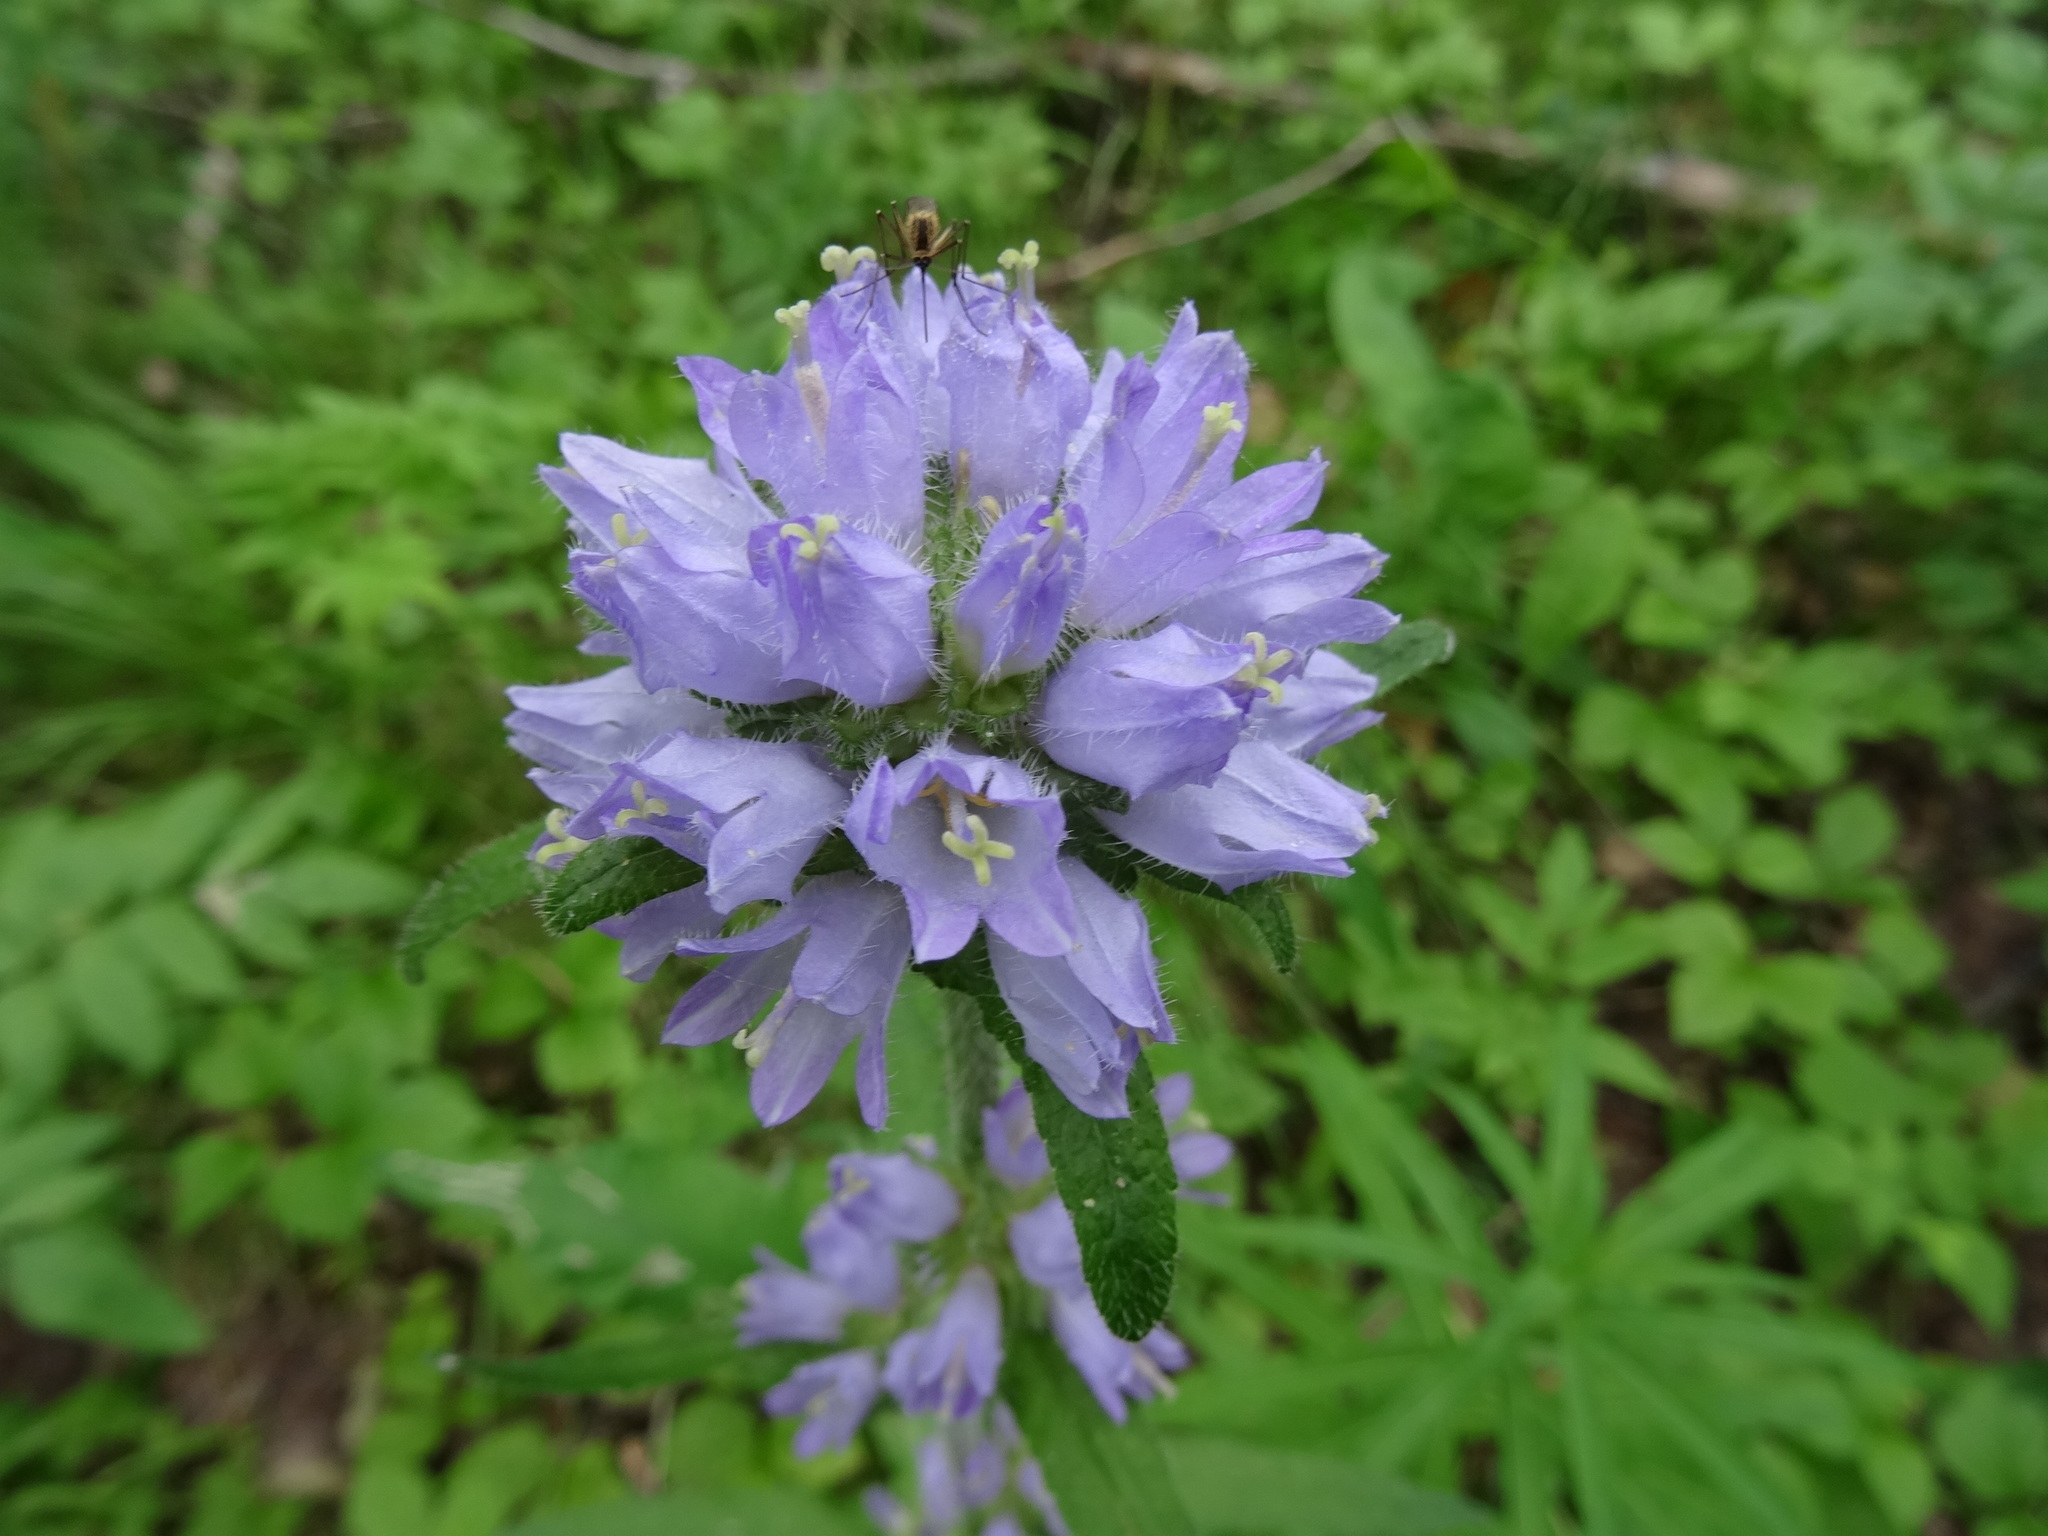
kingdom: Plantae
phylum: Tracheophyta
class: Magnoliopsida
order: Asterales
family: Campanulaceae
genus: Campanula
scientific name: Campanula cervicaria
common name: Bristly bellflower
